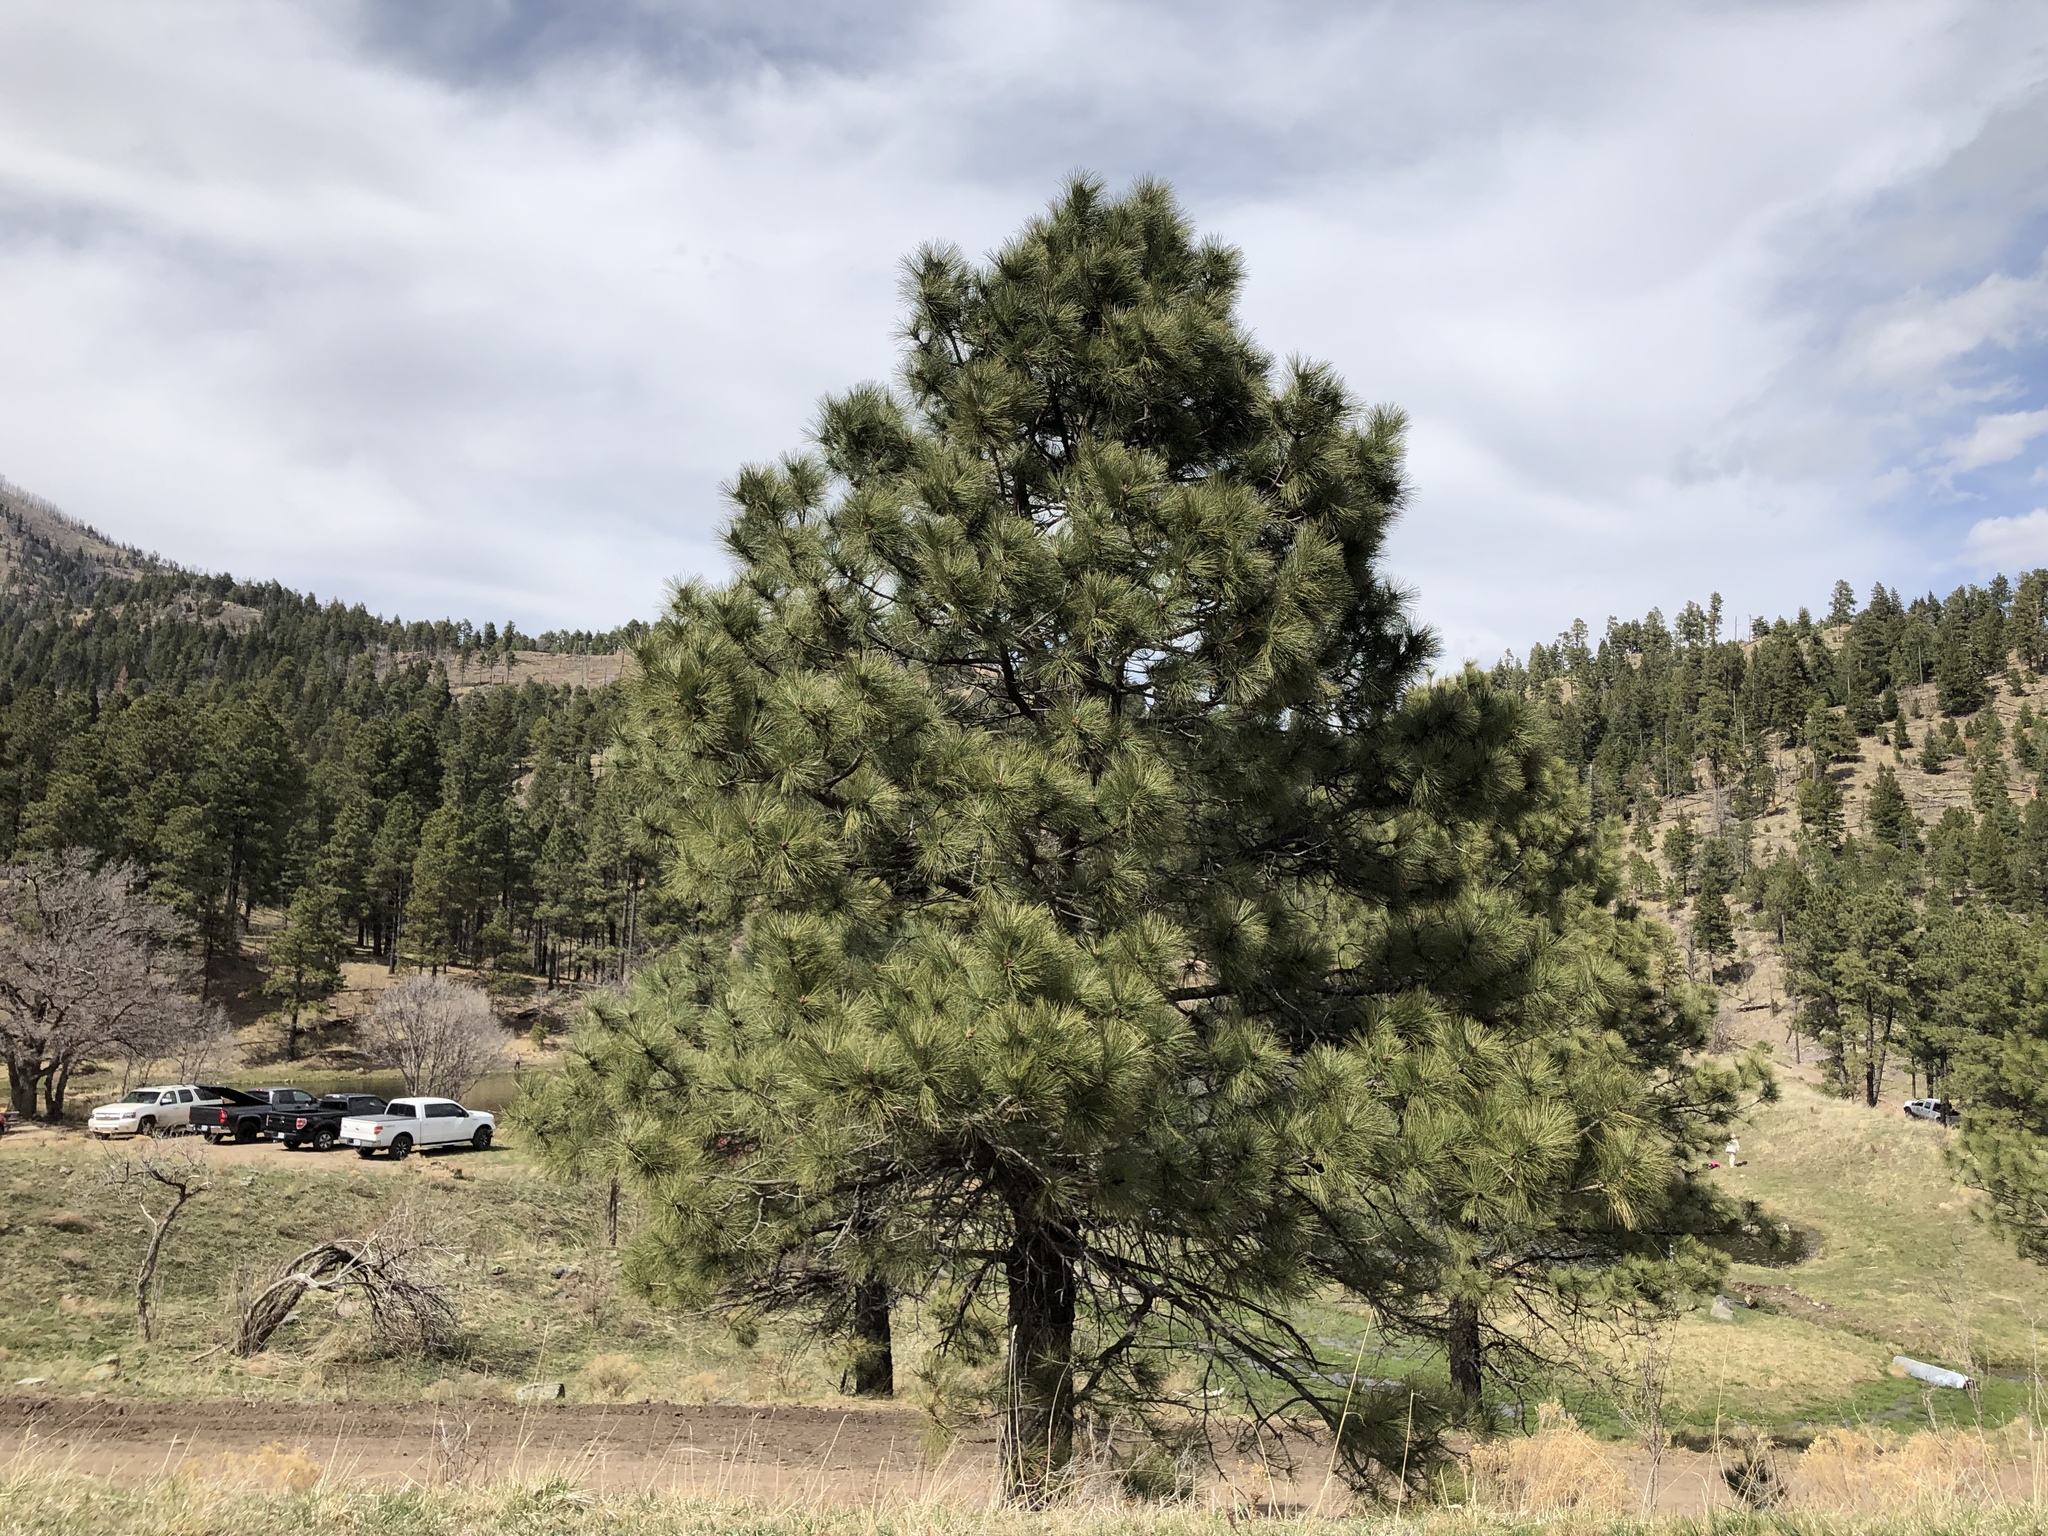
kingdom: Plantae
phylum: Tracheophyta
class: Pinopsida
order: Pinales
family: Pinaceae
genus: Pinus
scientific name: Pinus ponderosa
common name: Western yellow-pine
